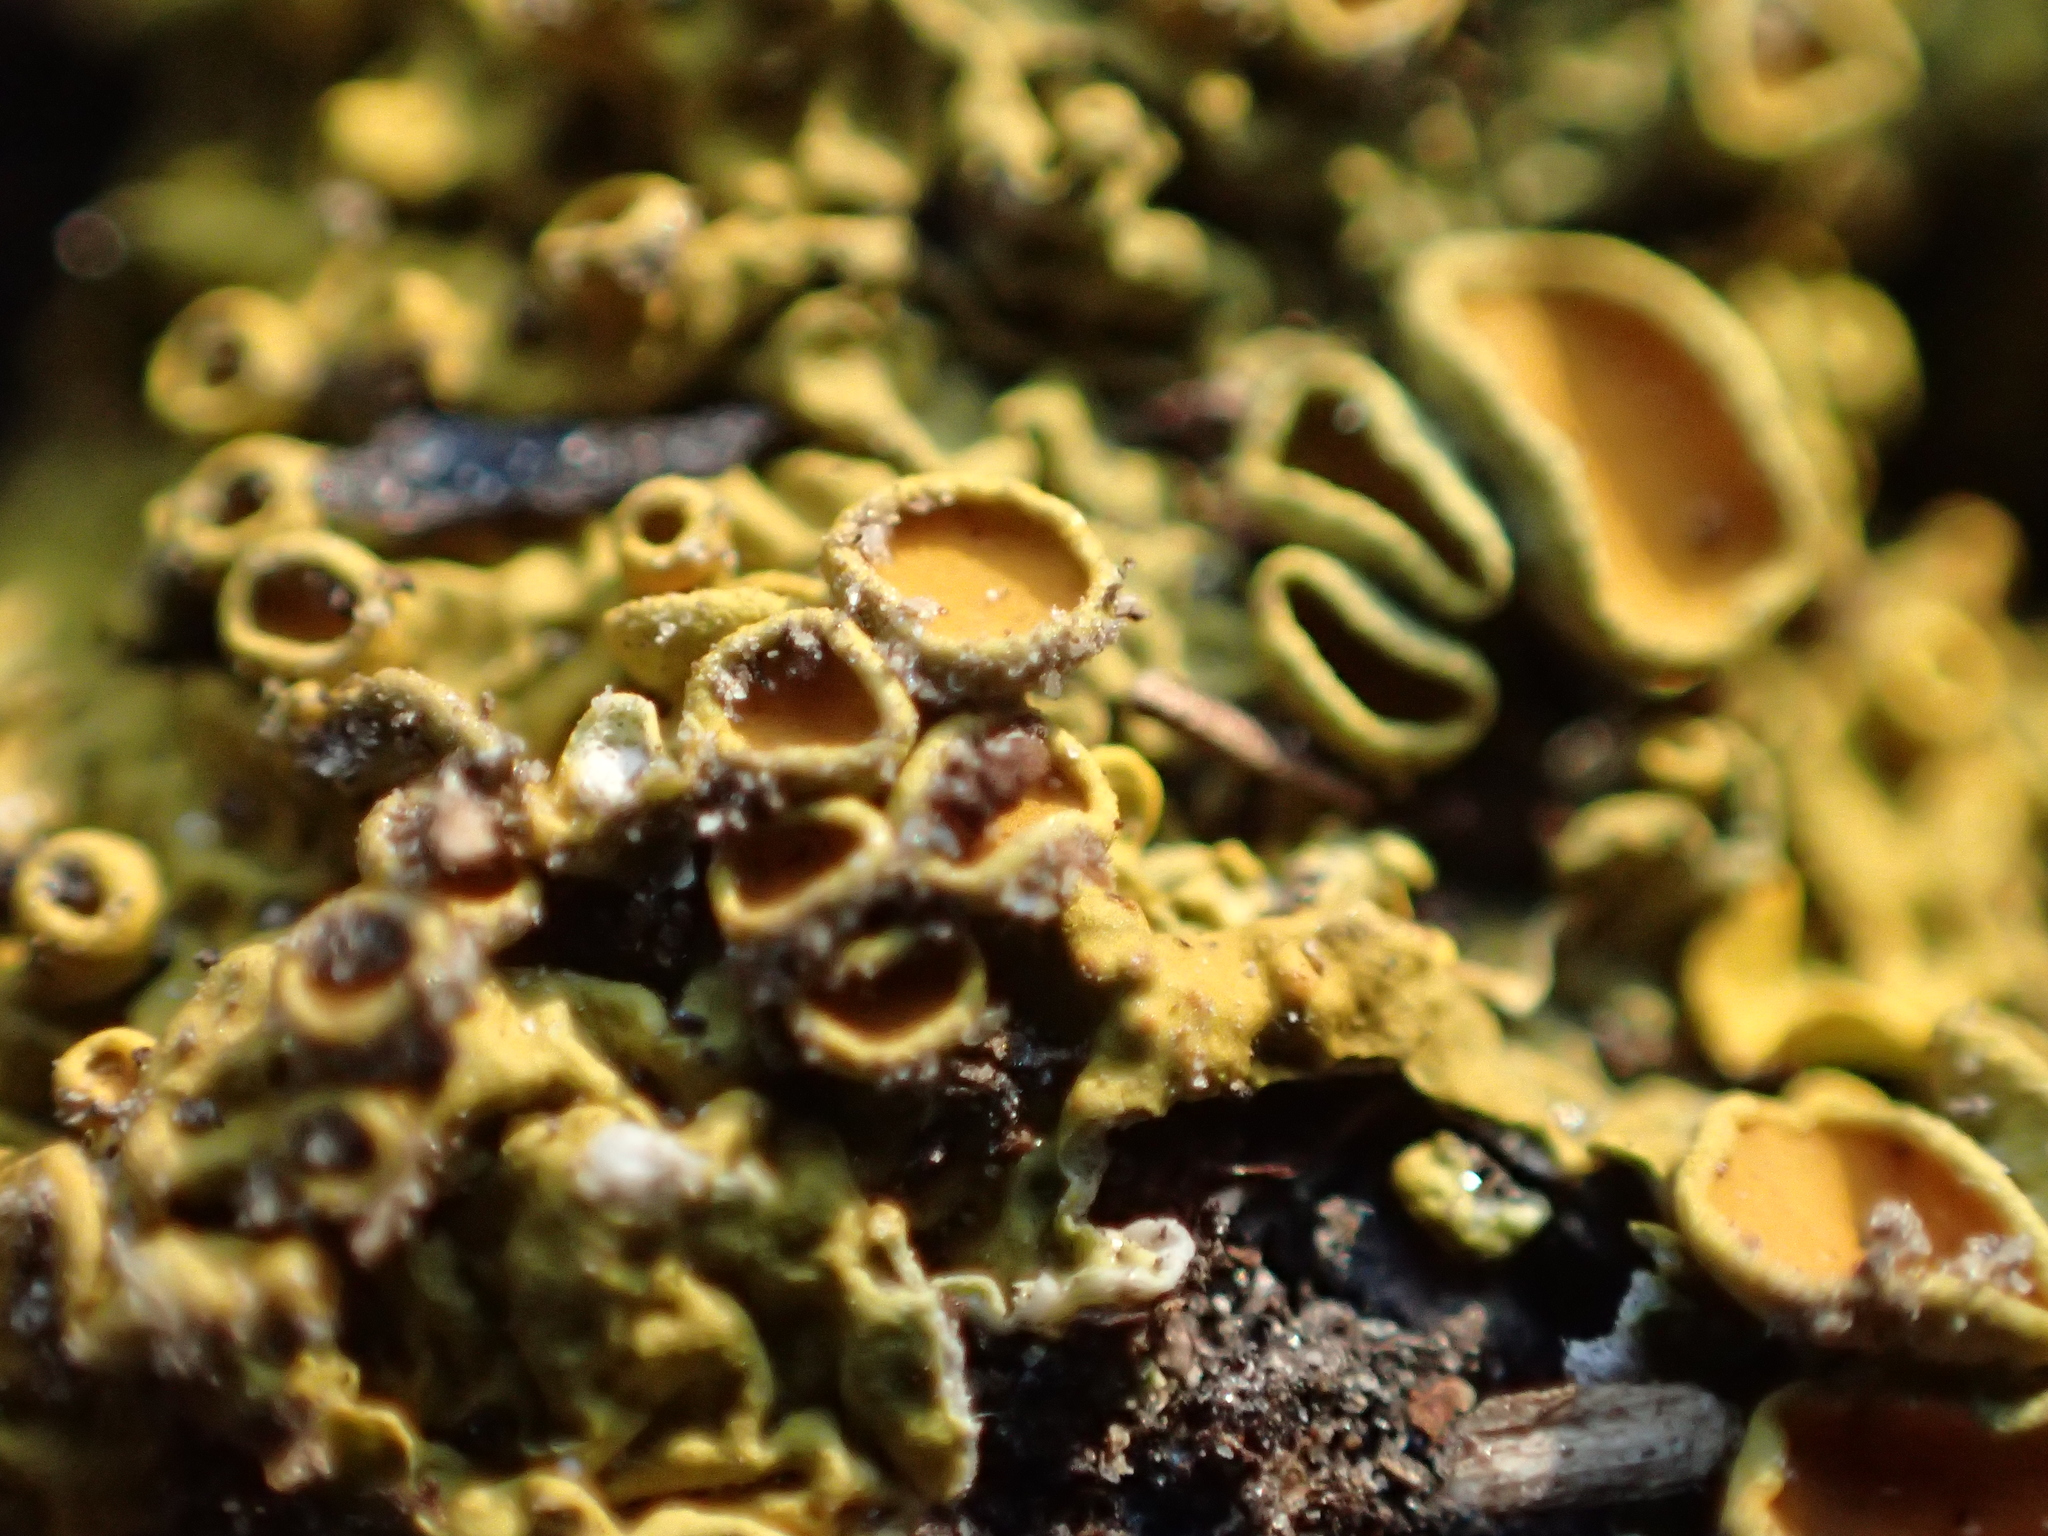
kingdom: Fungi
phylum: Ascomycota
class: Lecanoromycetes
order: Teloschistales
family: Teloschistaceae
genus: Xanthoria
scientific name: Xanthoria parietina
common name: Common orange lichen
